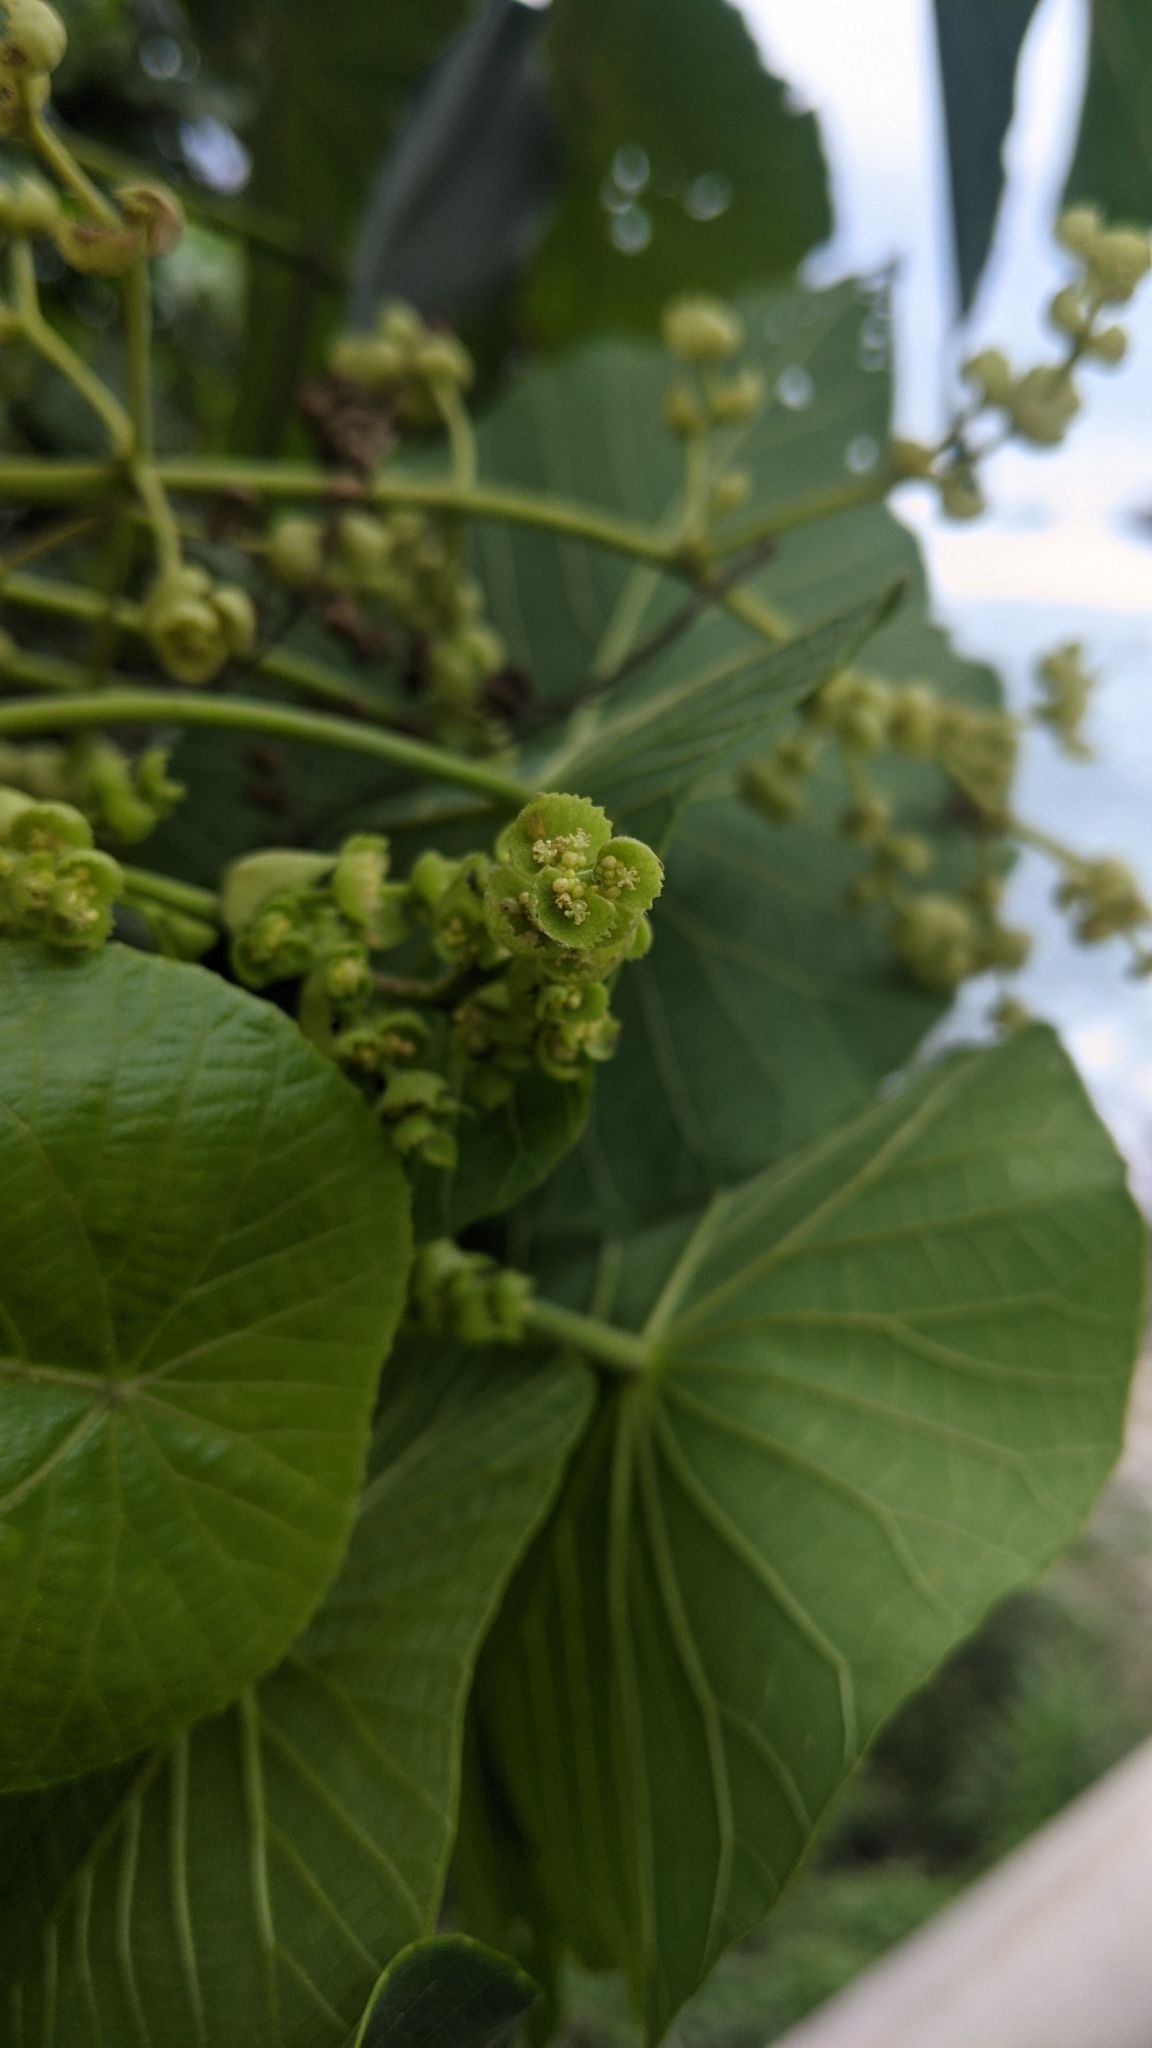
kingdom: Plantae
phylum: Tracheophyta
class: Magnoliopsida
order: Malpighiales
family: Euphorbiaceae
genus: Macaranga
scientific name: Macaranga tanarius
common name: Parasol leaf tree
